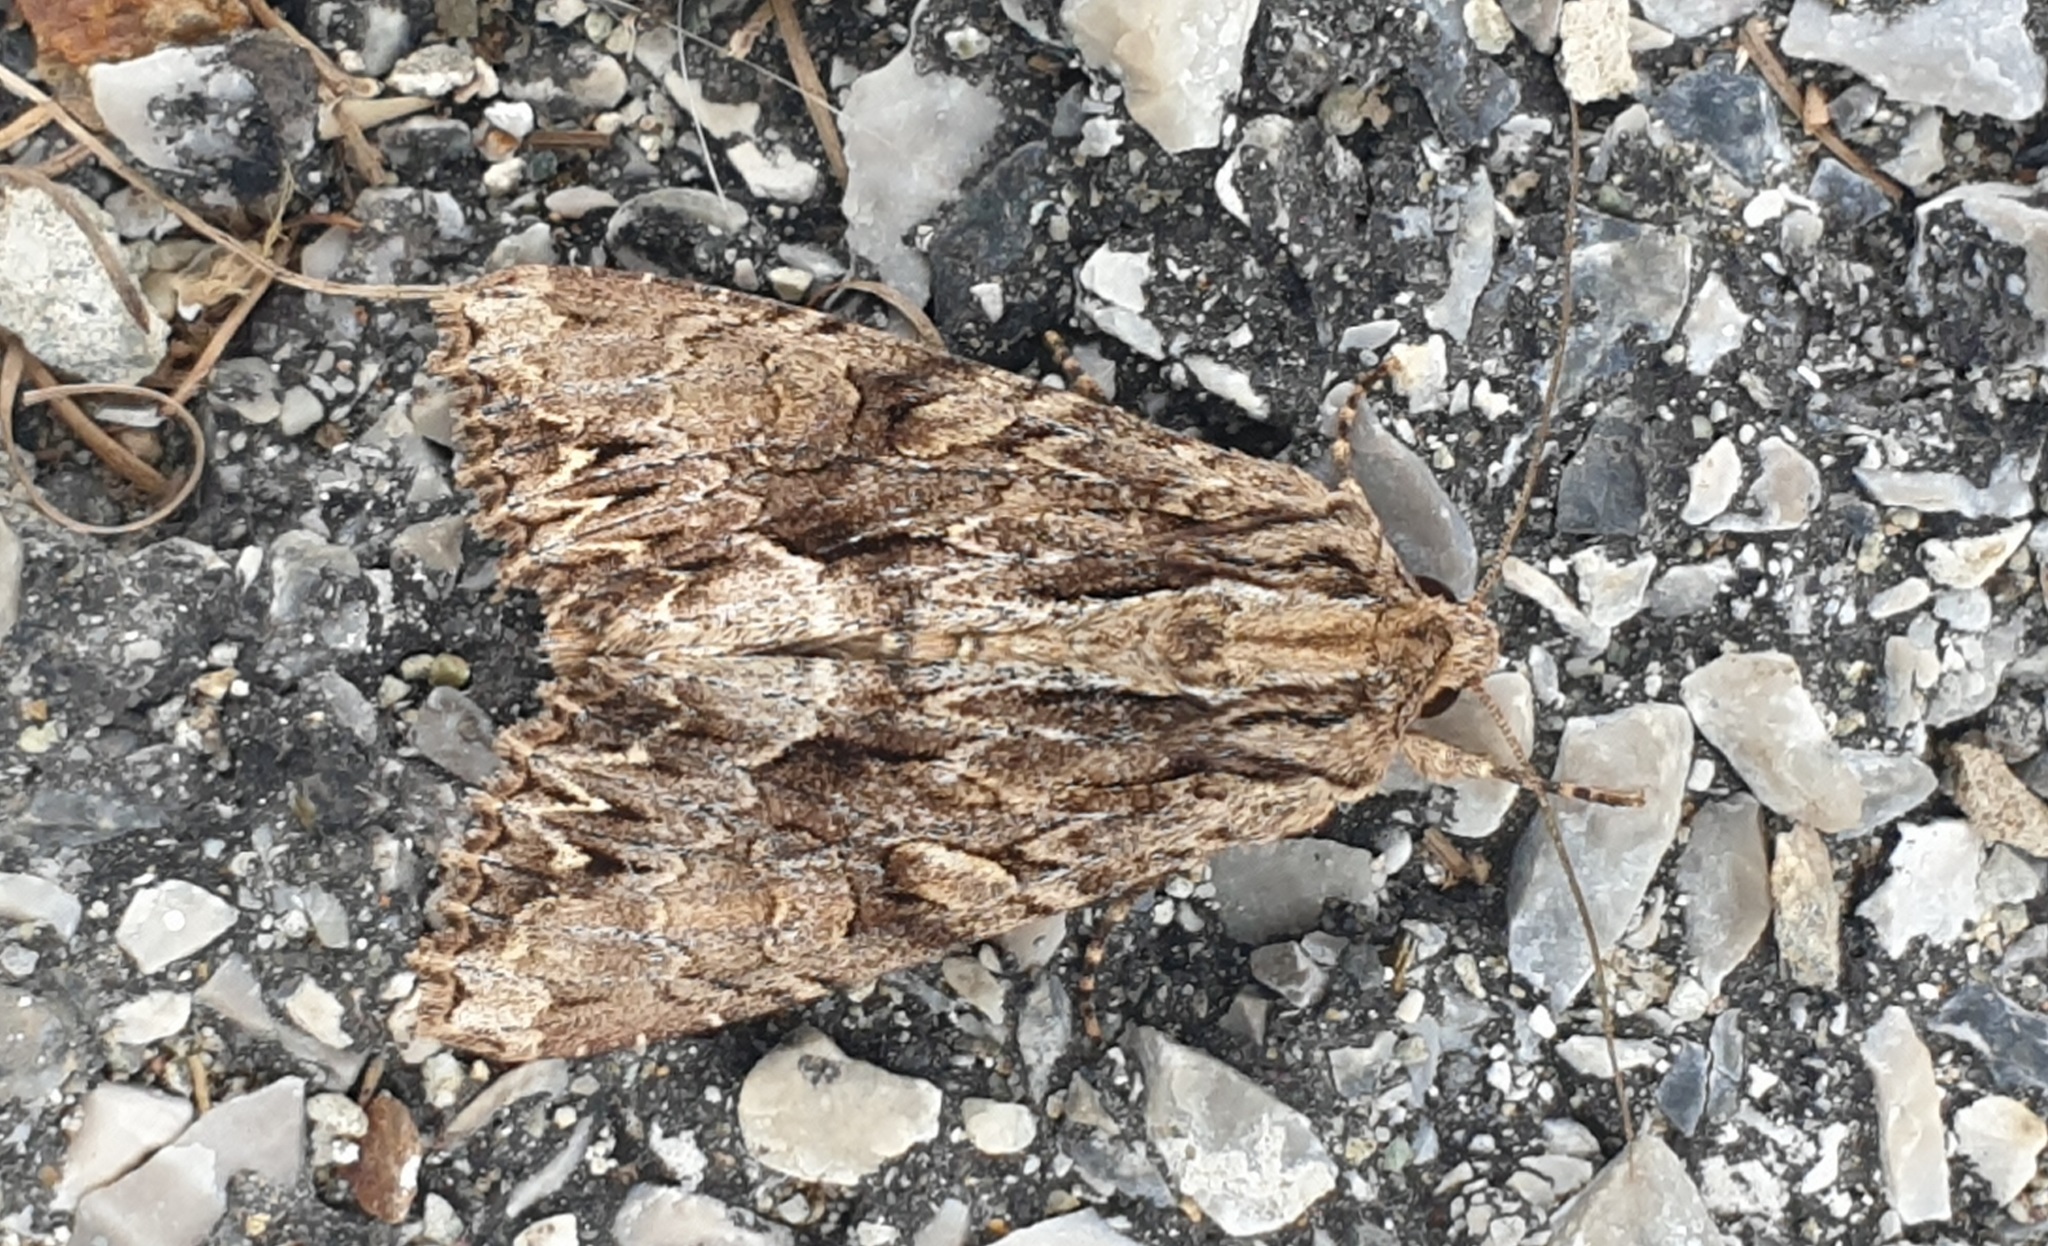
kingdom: Animalia
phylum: Arthropoda
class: Insecta
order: Lepidoptera
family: Noctuidae
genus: Apamea
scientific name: Apamea monoglypha
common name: Dark arches
